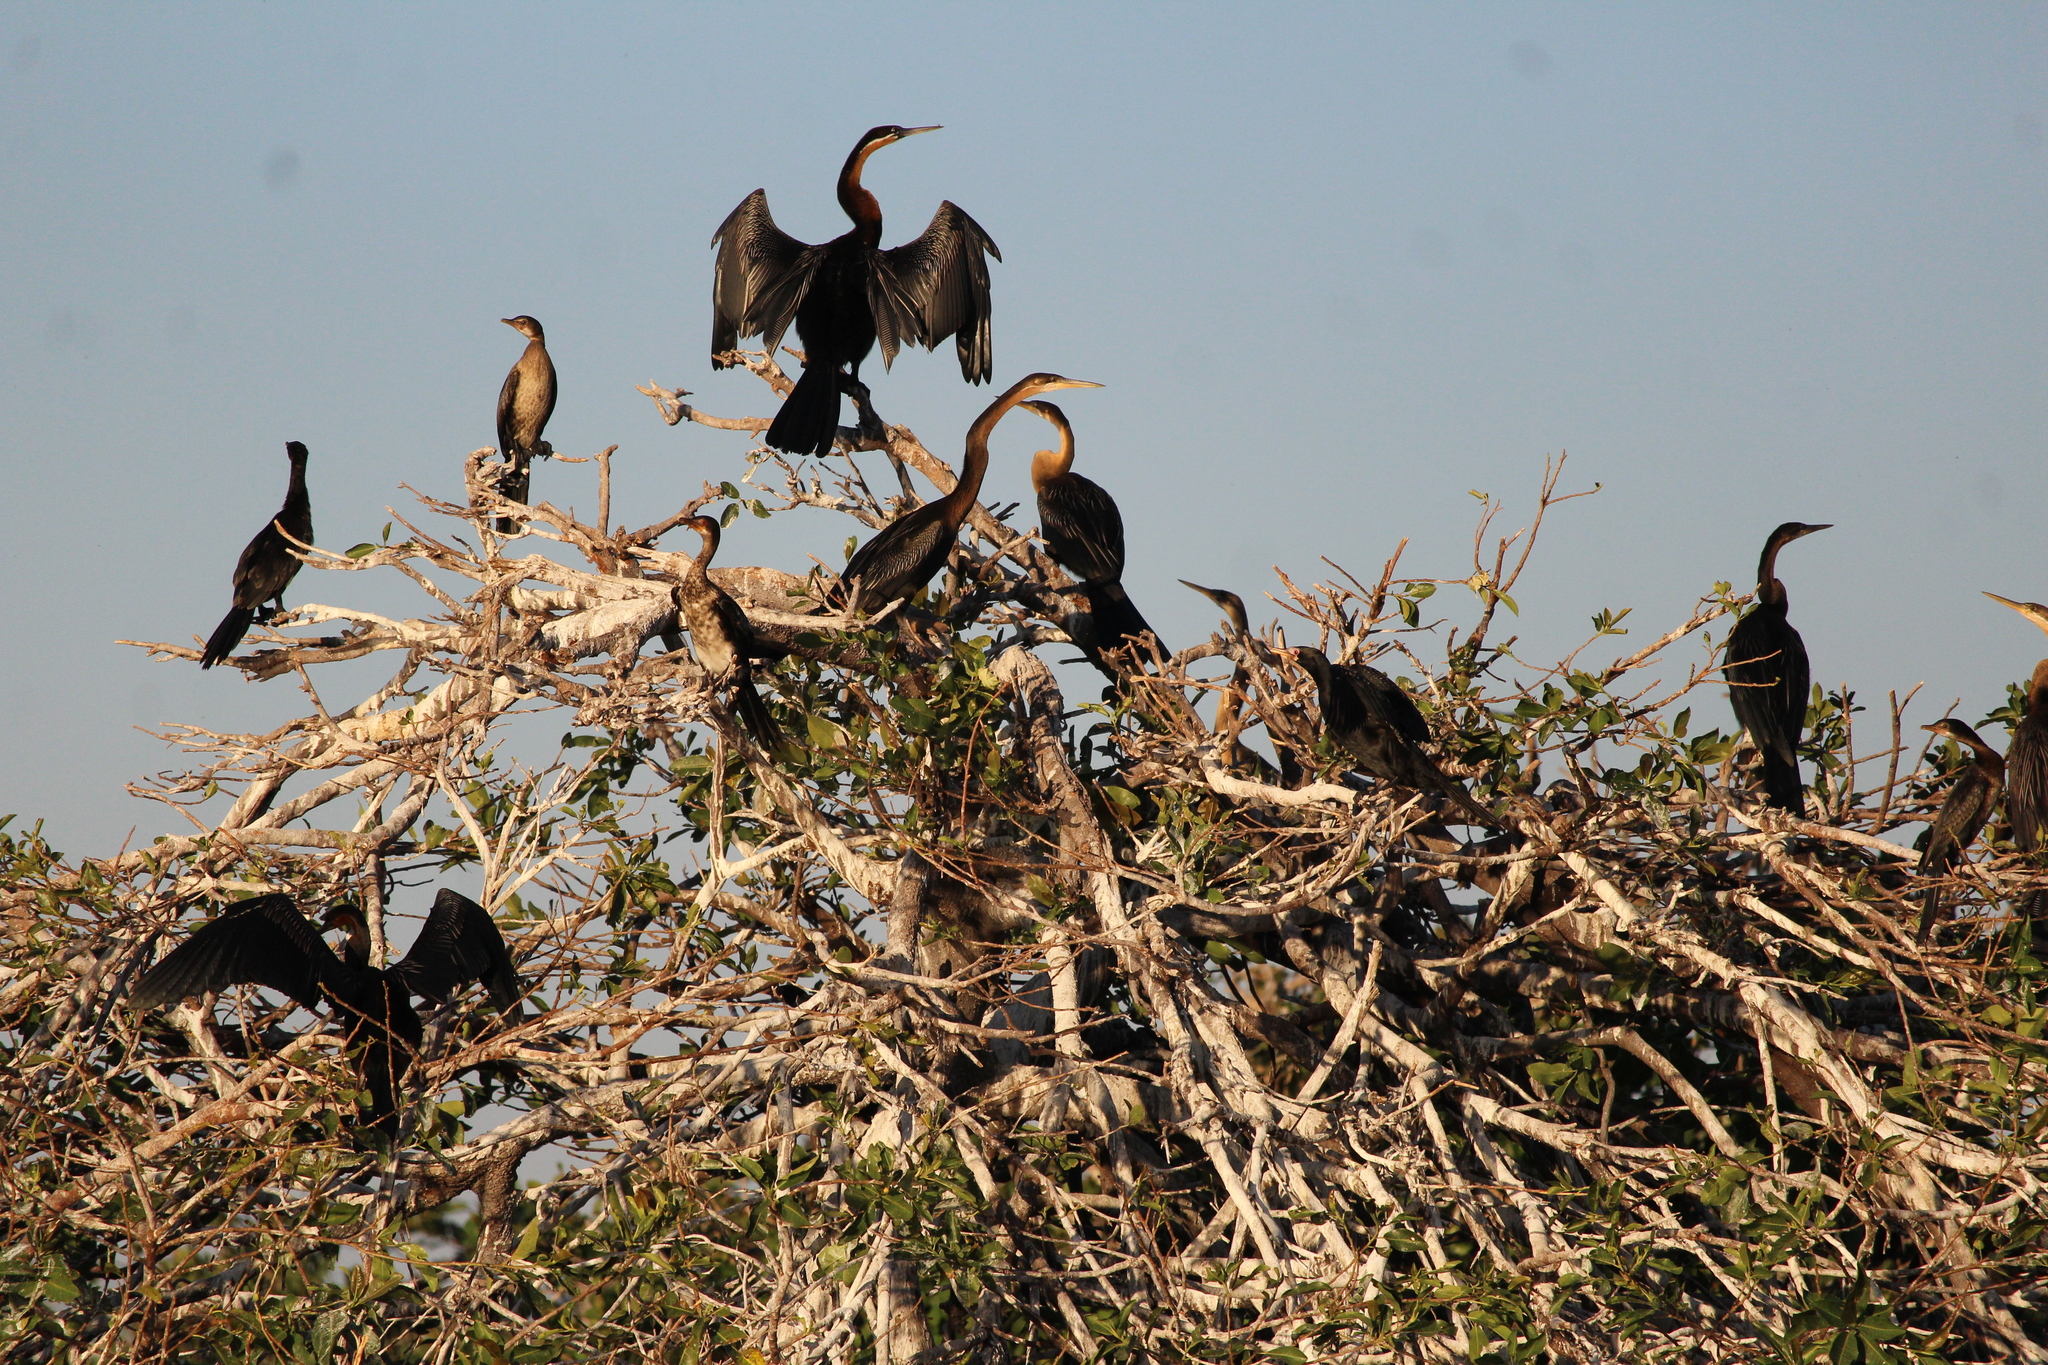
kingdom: Animalia
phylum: Chordata
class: Aves
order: Suliformes
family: Anhingidae
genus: Anhinga
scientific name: Anhinga rufa
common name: African darter
